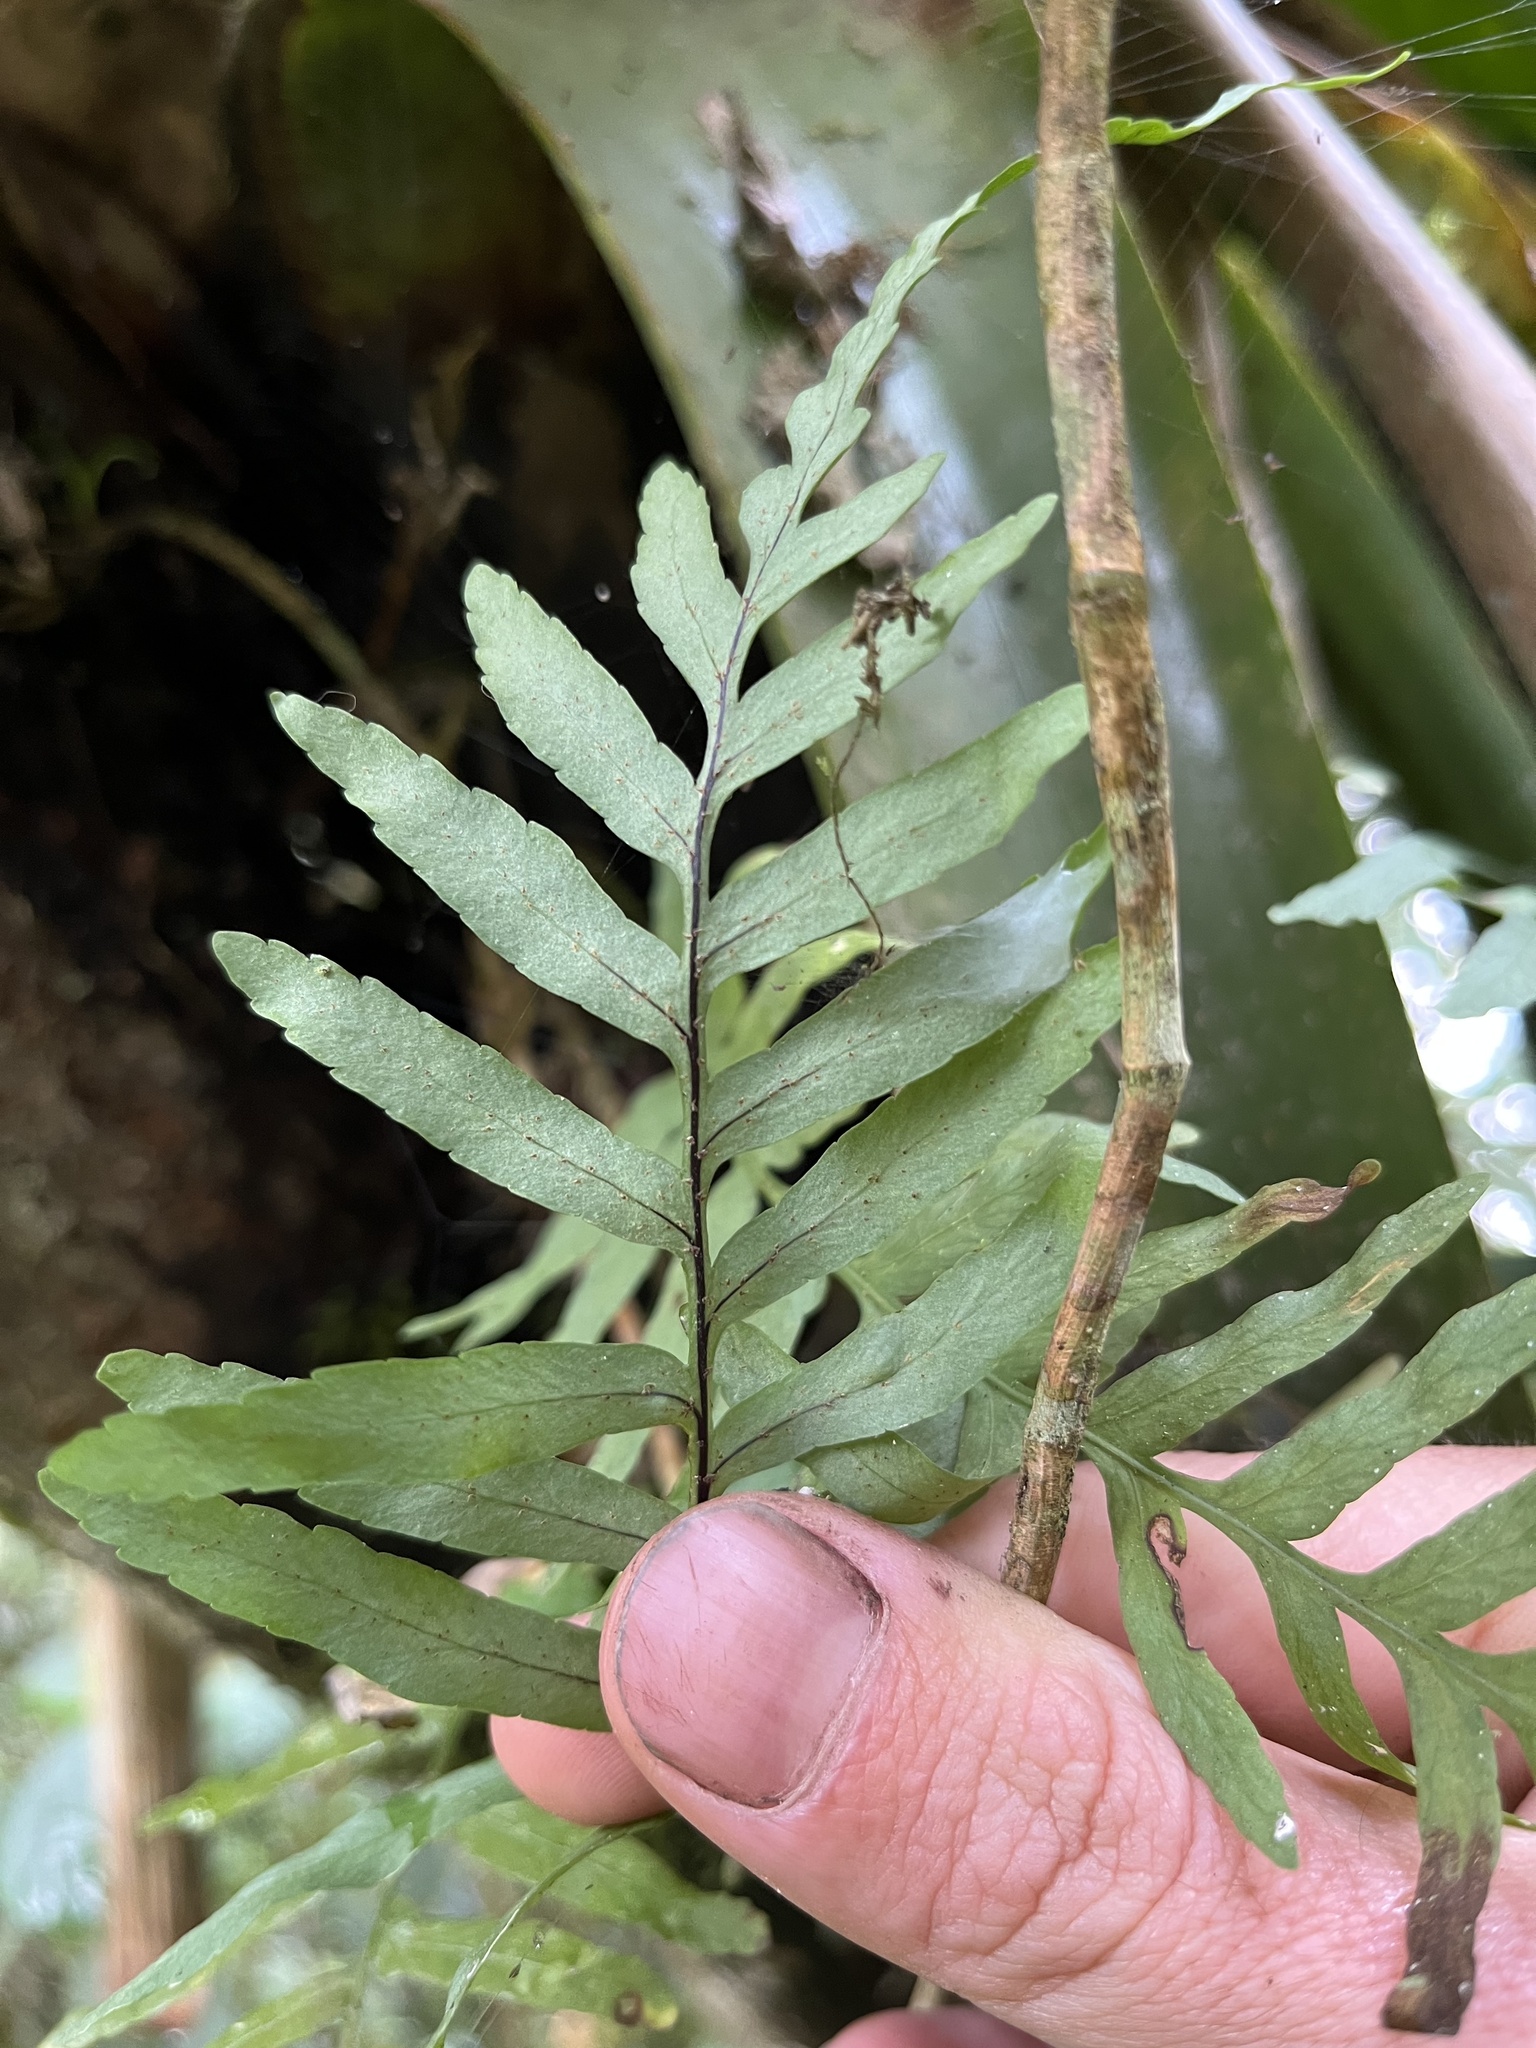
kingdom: Plantae
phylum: Tracheophyta
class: Polypodiopsida
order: Polypodiales
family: Polypodiaceae
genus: Pleopeltis
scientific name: Pleopeltis buchtienii
